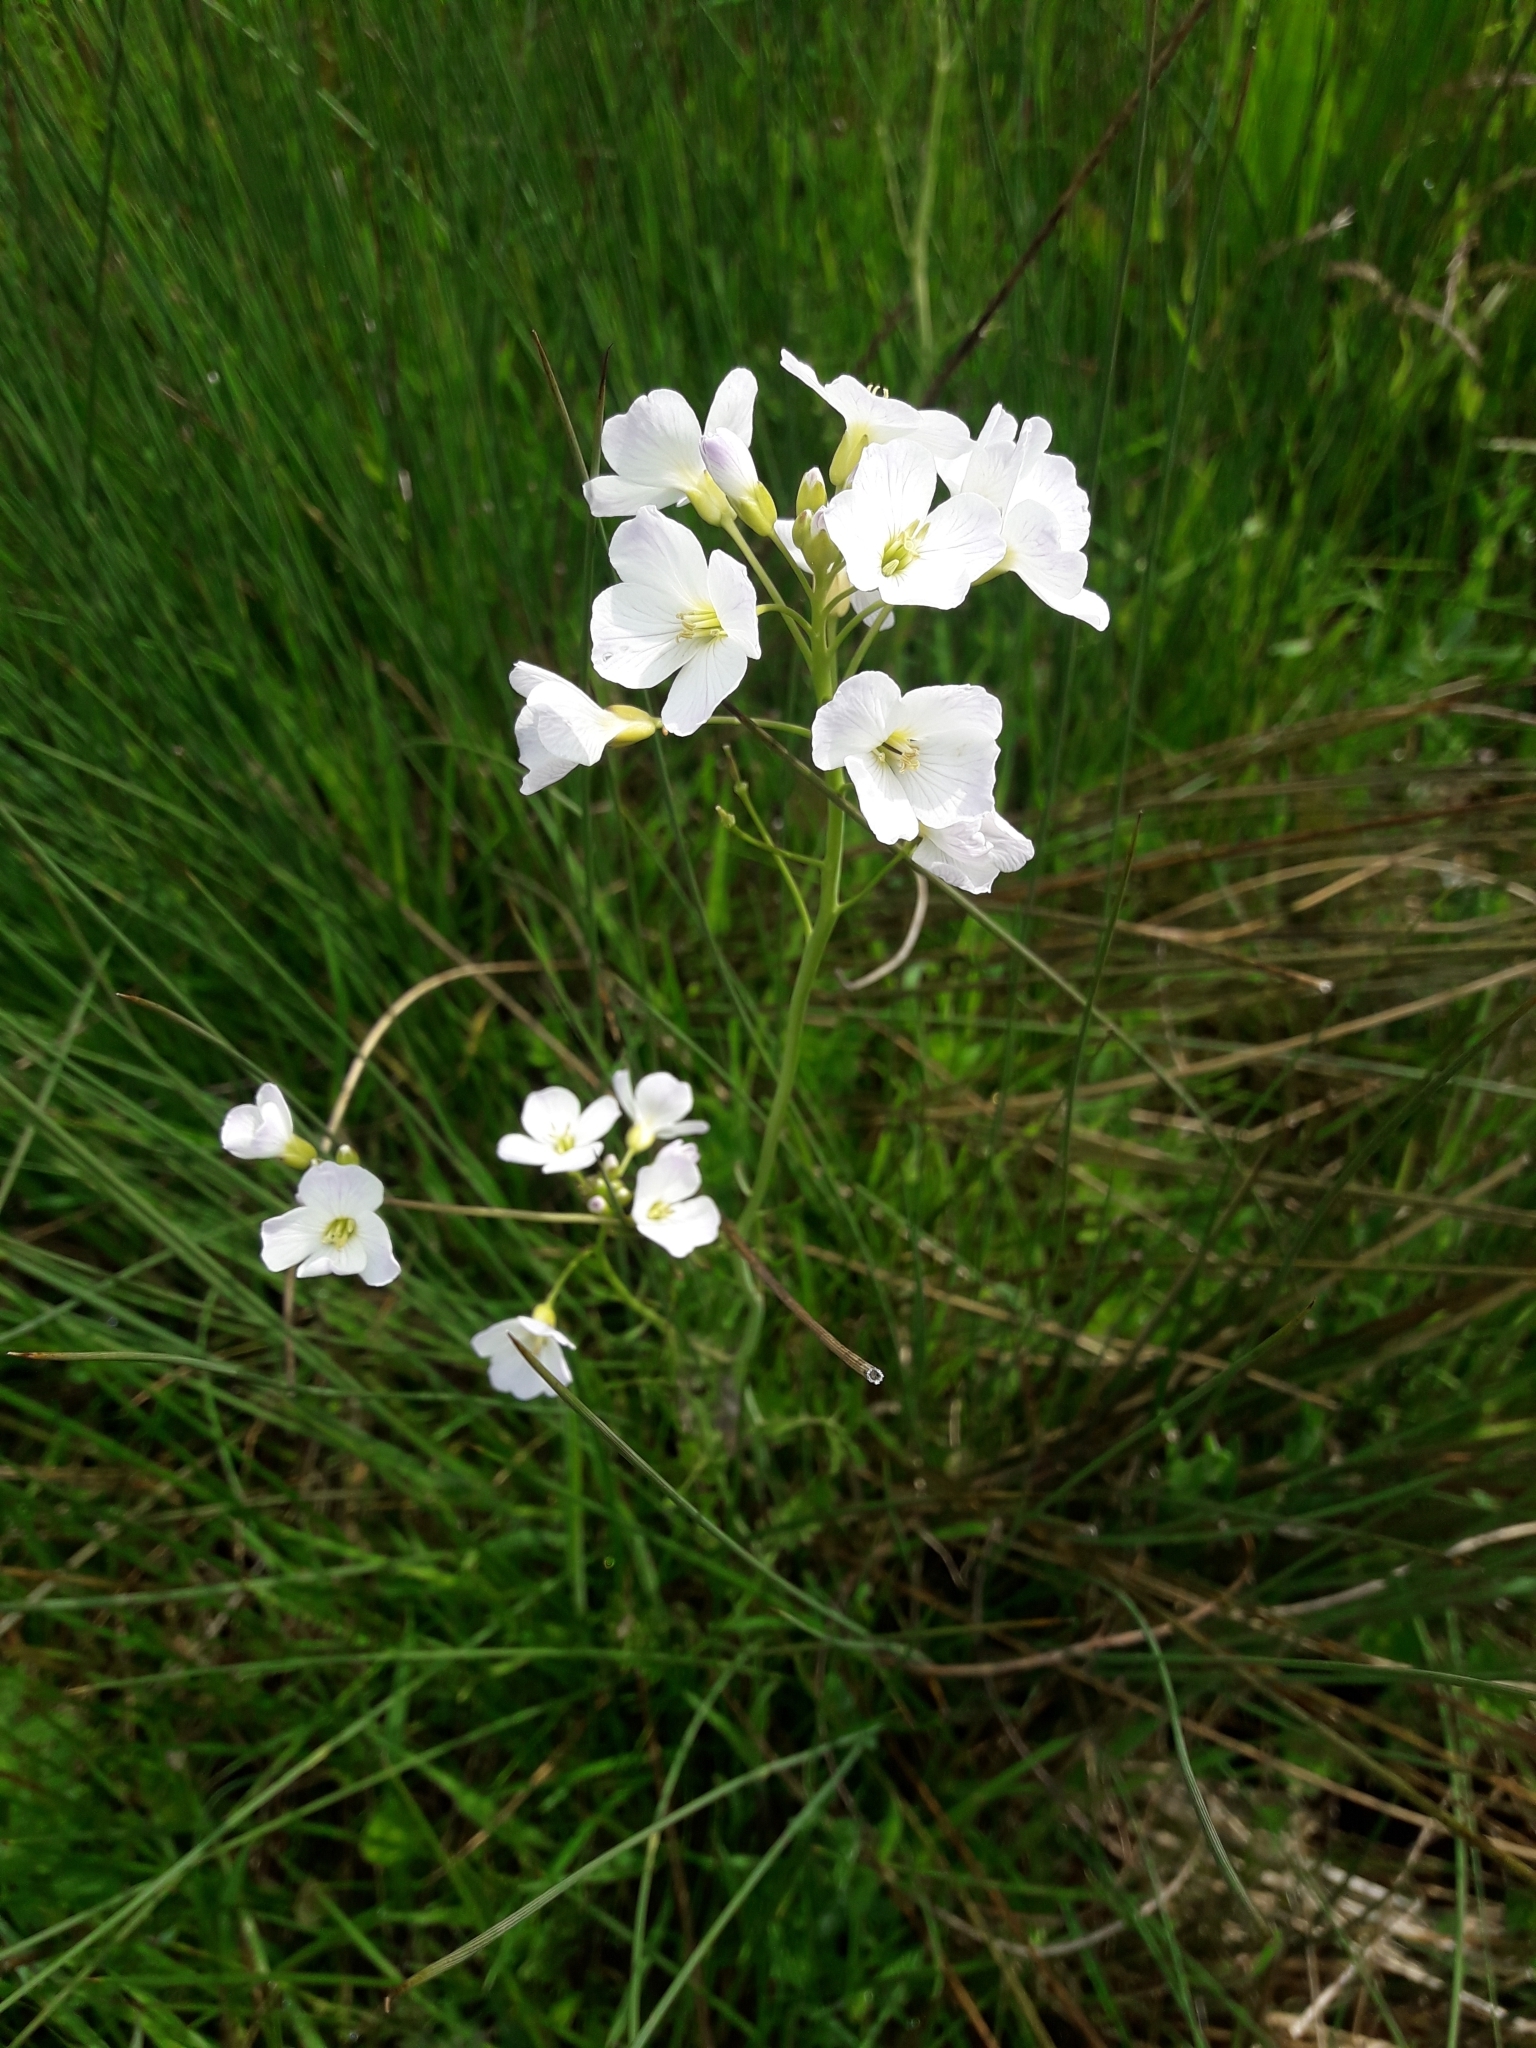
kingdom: Plantae
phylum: Tracheophyta
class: Magnoliopsida
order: Brassicales
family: Brassicaceae
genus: Cardamine
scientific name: Cardamine pratensis
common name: Cuckoo flower
